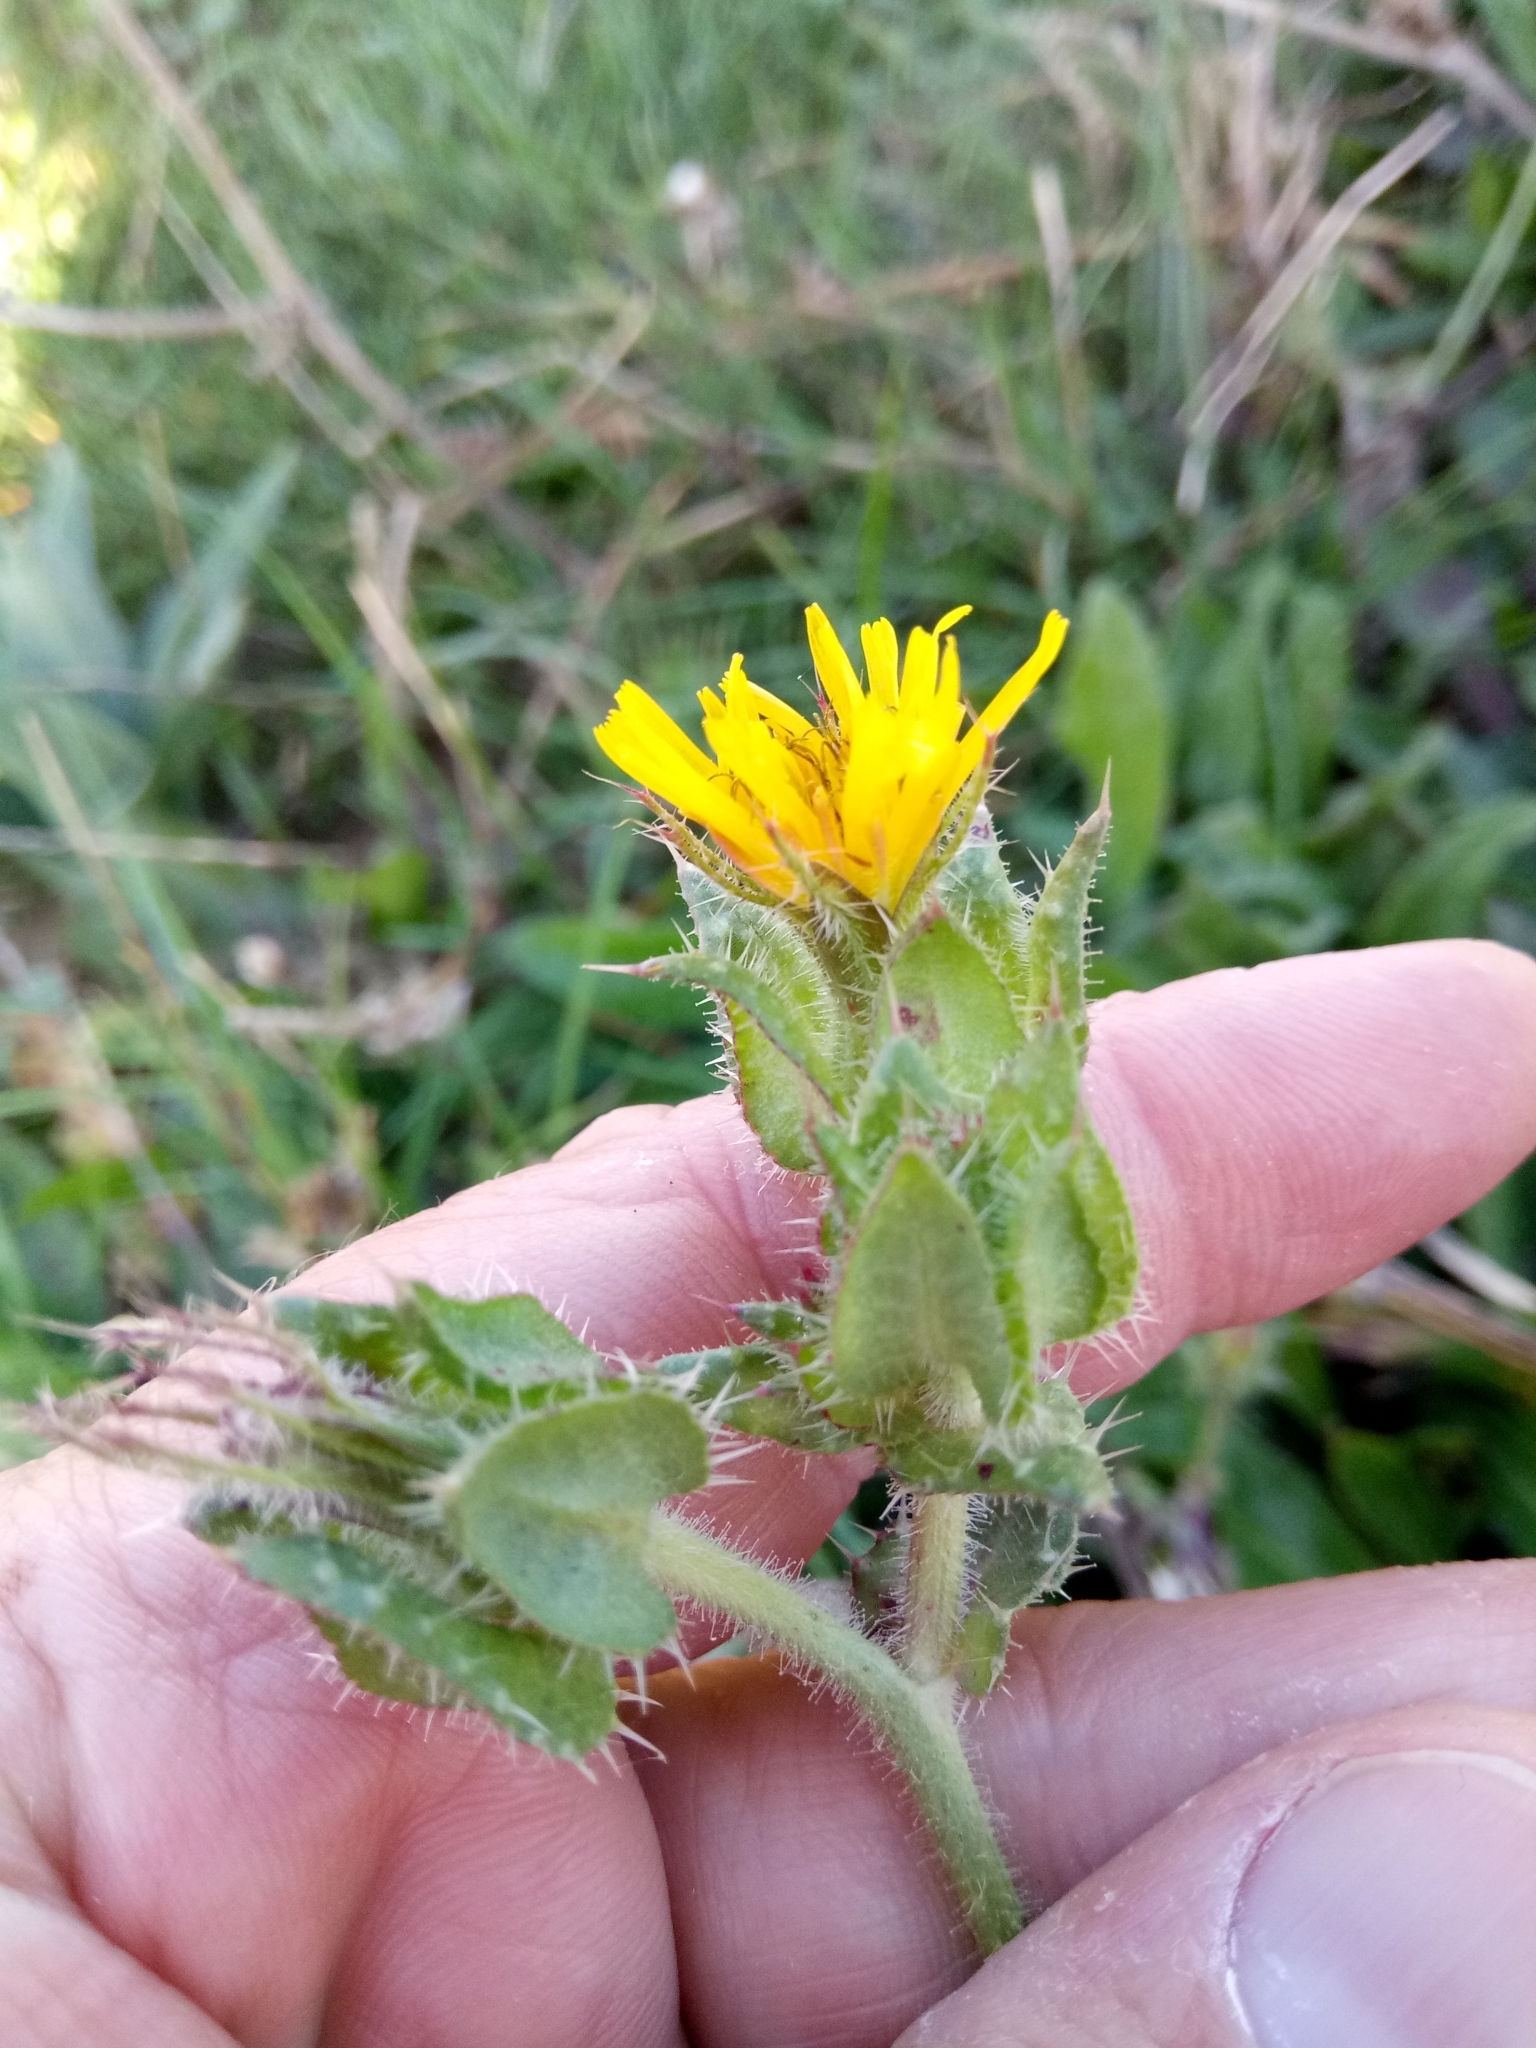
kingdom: Plantae
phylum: Tracheophyta
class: Magnoliopsida
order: Asterales
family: Asteraceae
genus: Helminthotheca
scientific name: Helminthotheca echioides
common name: Ox-tongue
